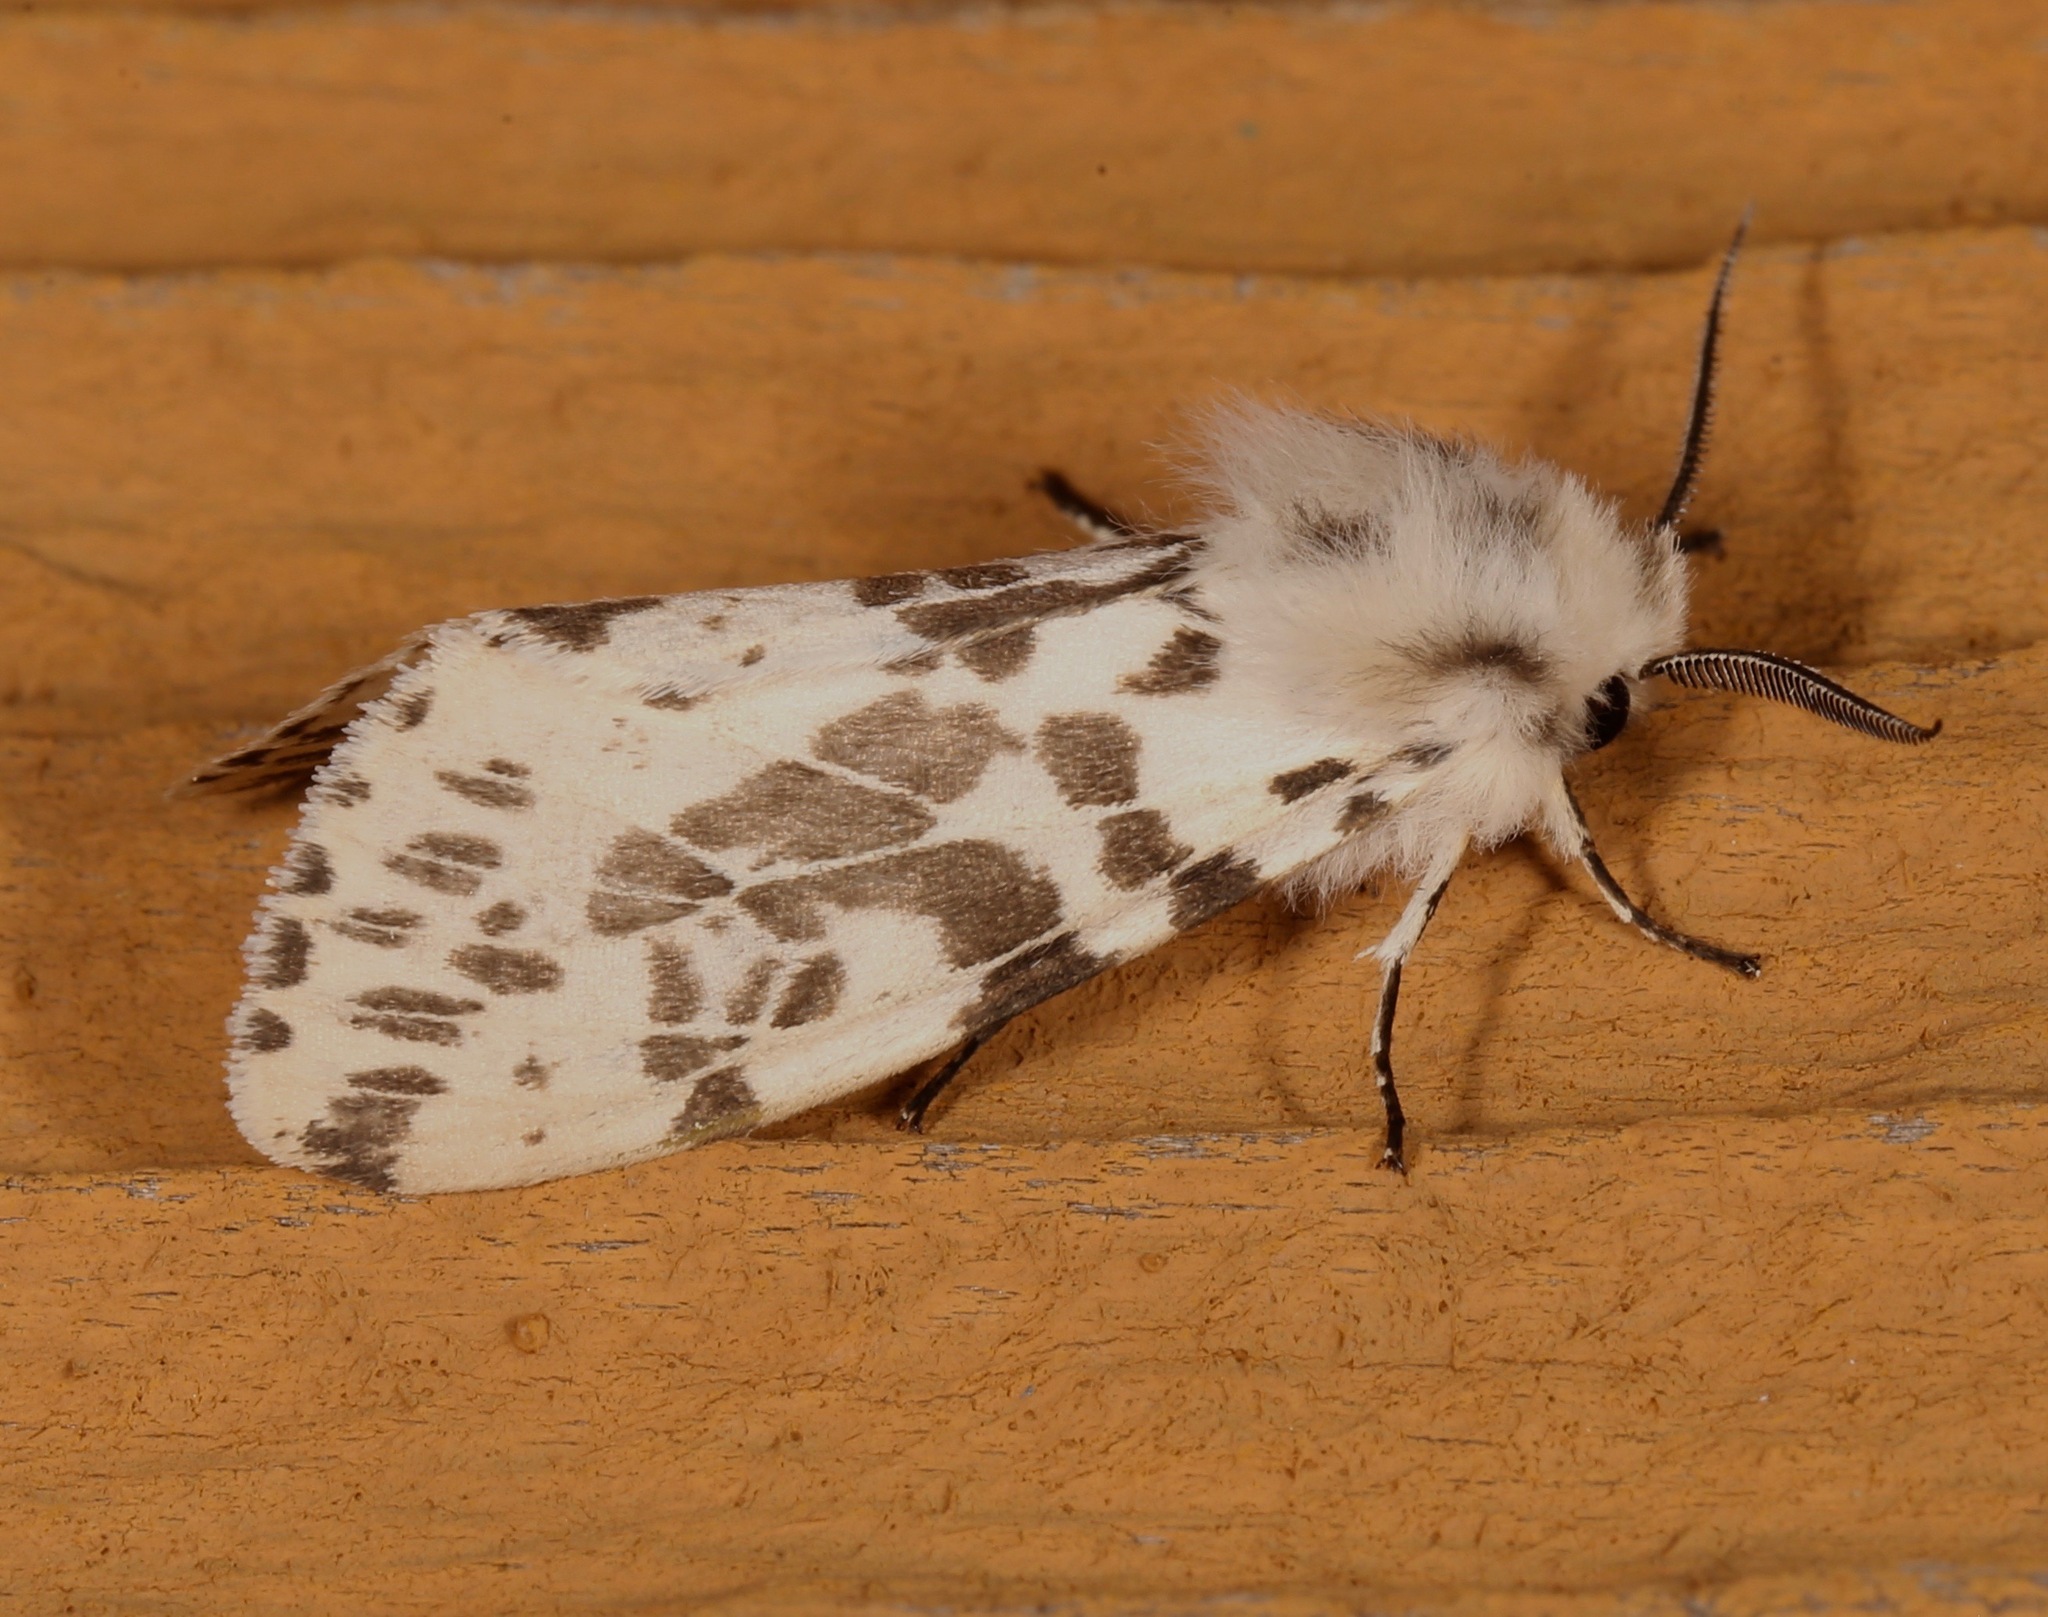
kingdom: Animalia
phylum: Arthropoda
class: Insecta
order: Lepidoptera
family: Erebidae
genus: Hyphantria
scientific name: Hyphantria cunea
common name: American white moth
